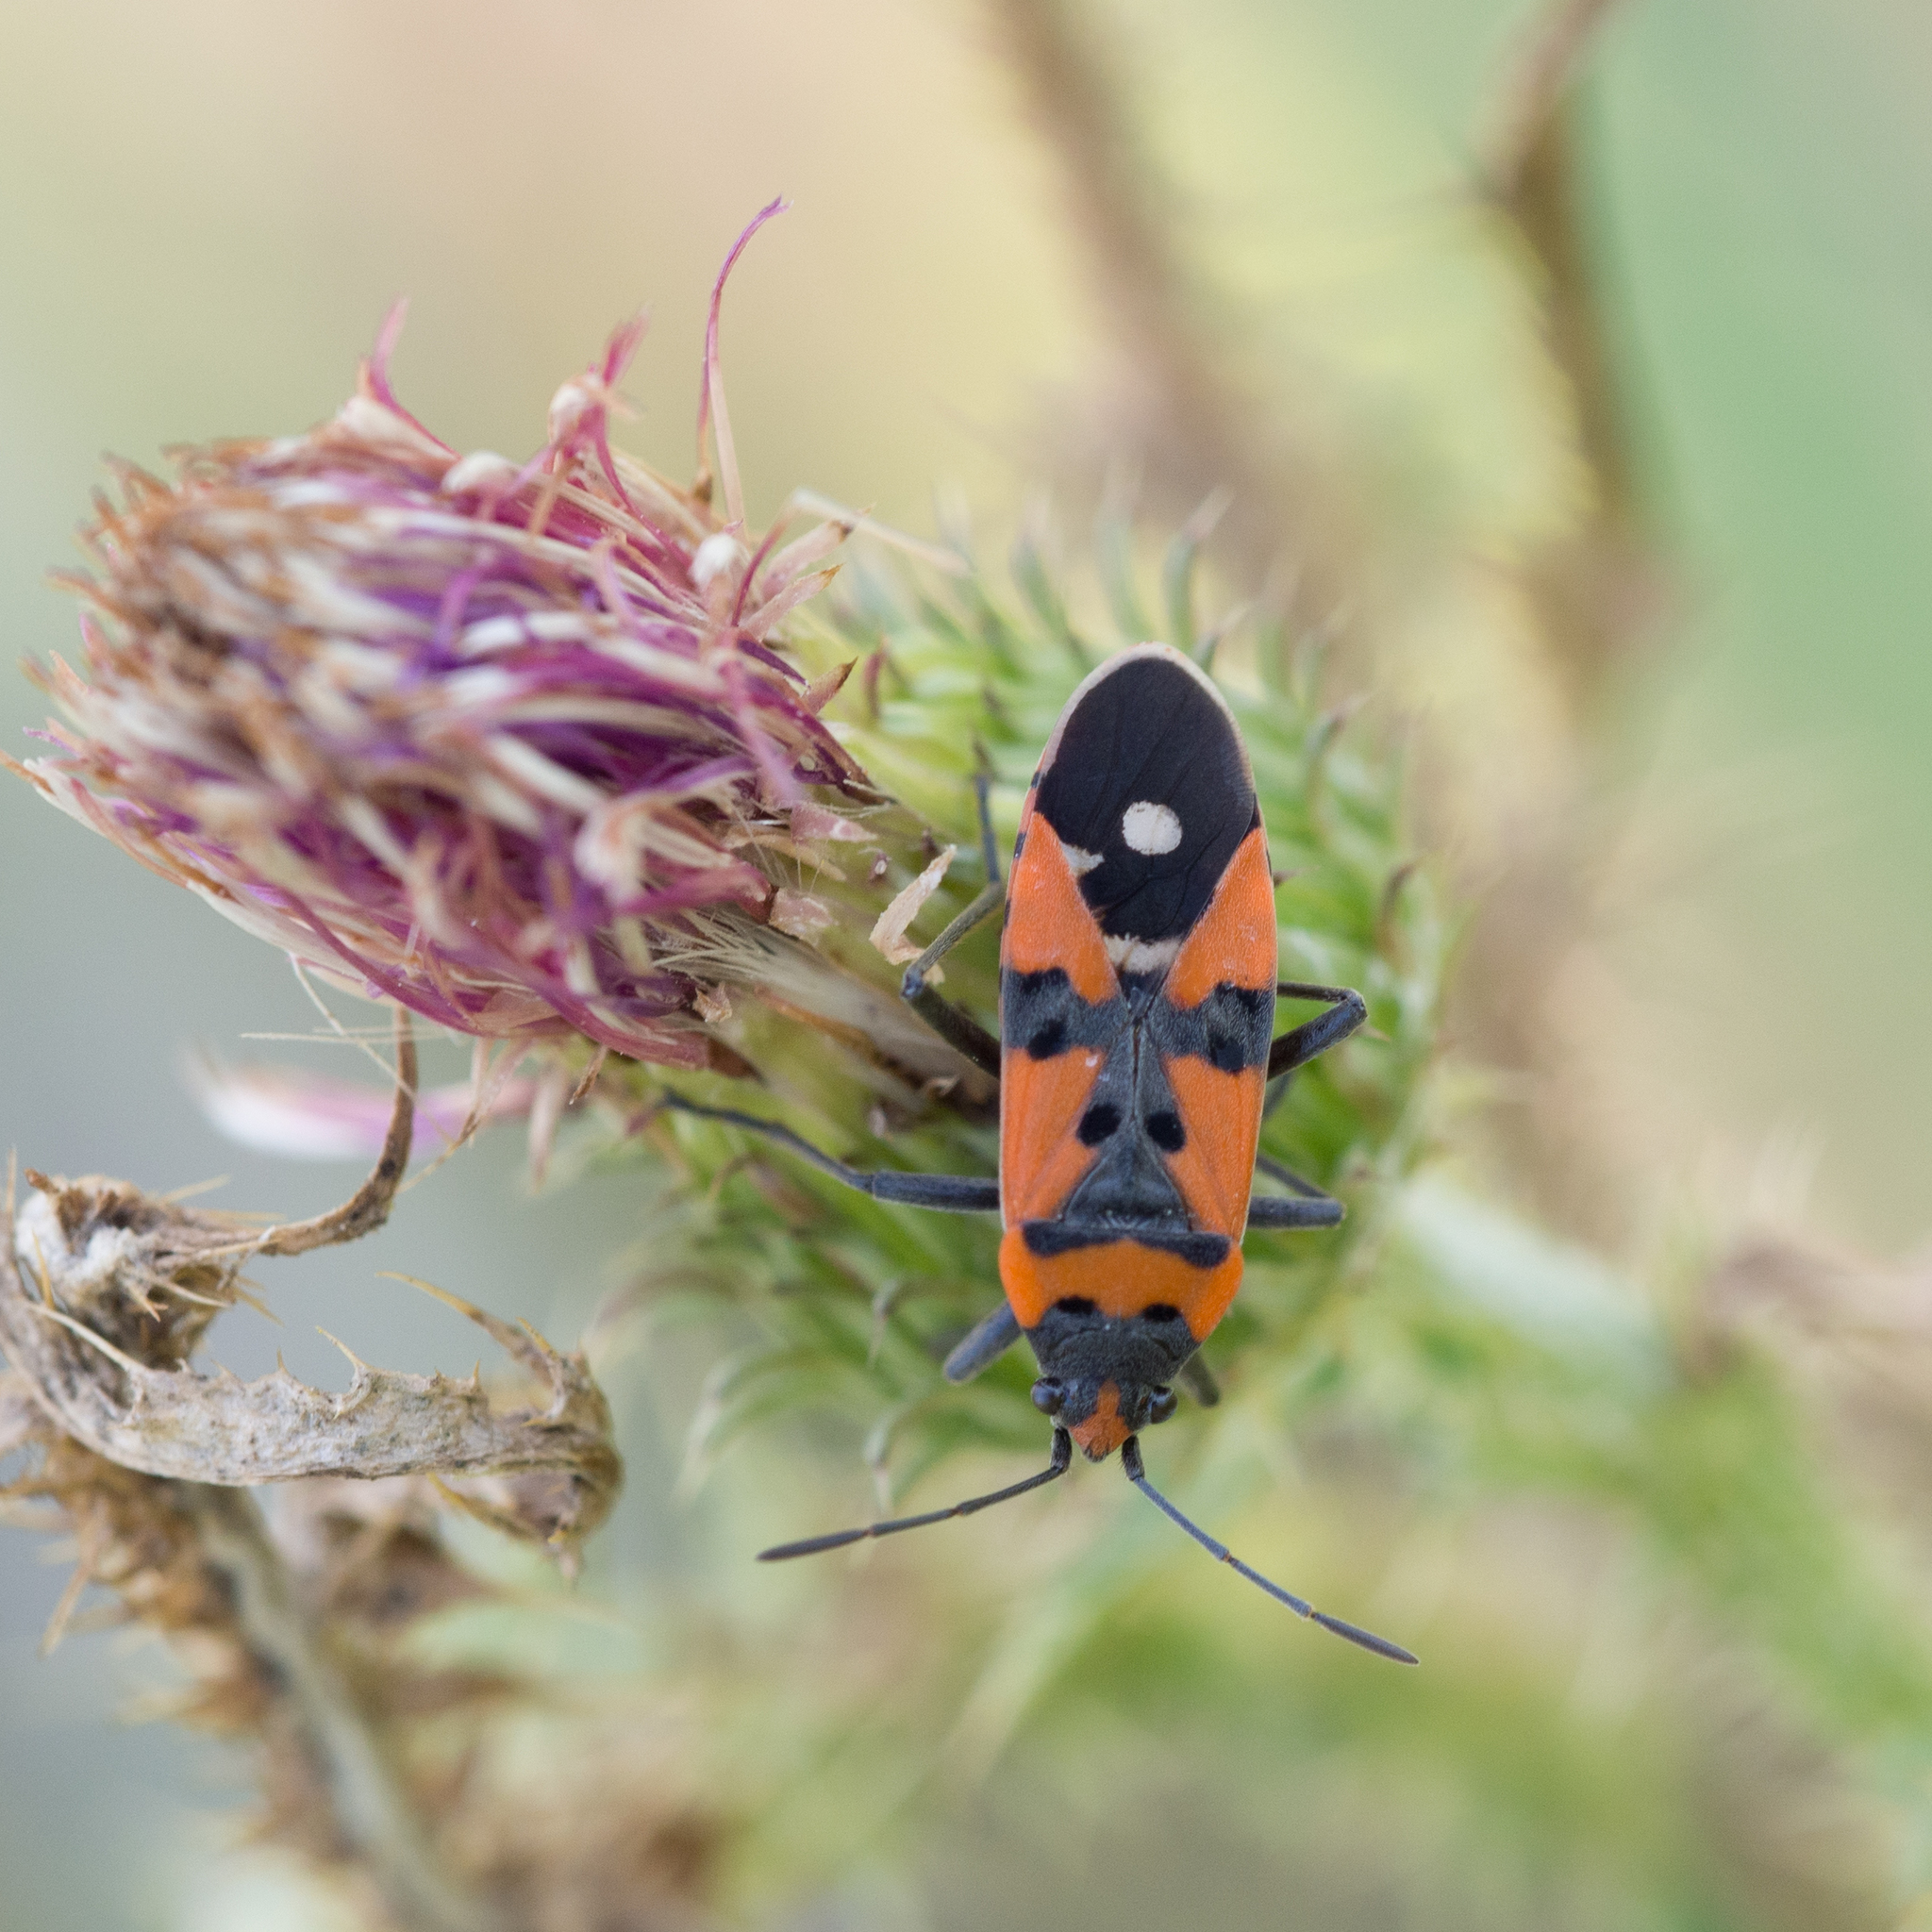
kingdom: Animalia
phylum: Arthropoda
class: Insecta
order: Hemiptera
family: Lygaeidae
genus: Lygaeus
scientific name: Lygaeus equestris
